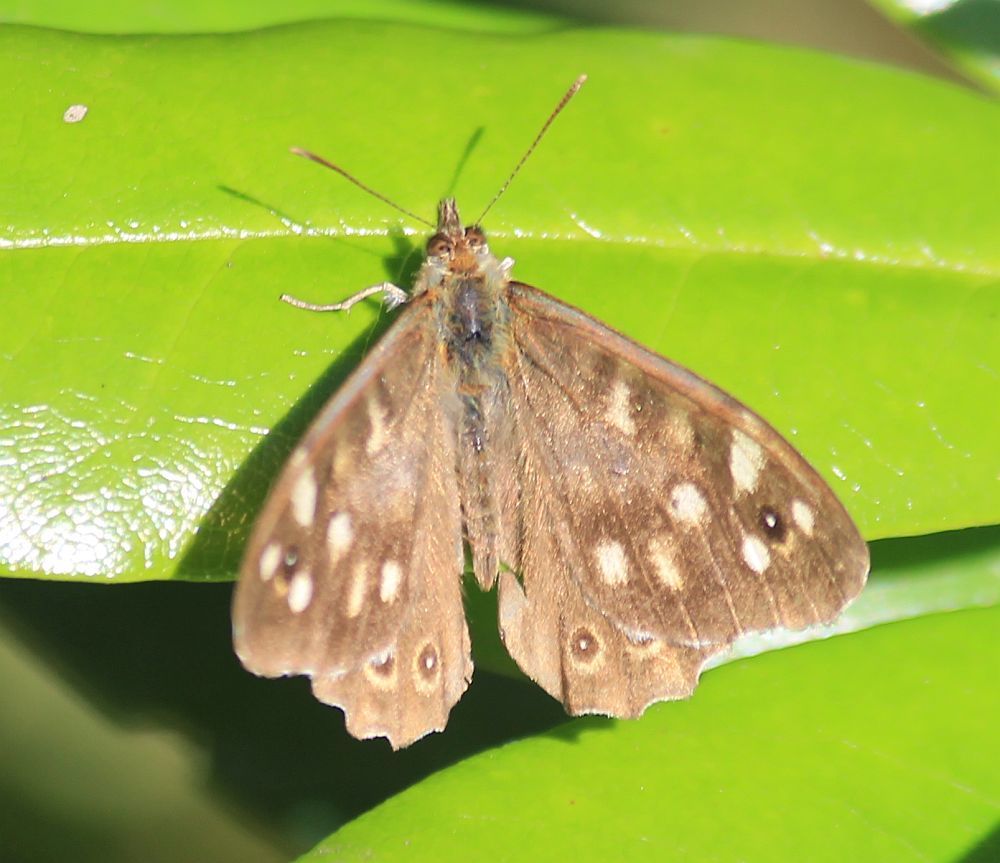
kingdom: Animalia
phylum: Arthropoda
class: Insecta
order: Lepidoptera
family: Nymphalidae
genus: Pararge
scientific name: Pararge aegeria
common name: Speckled wood
